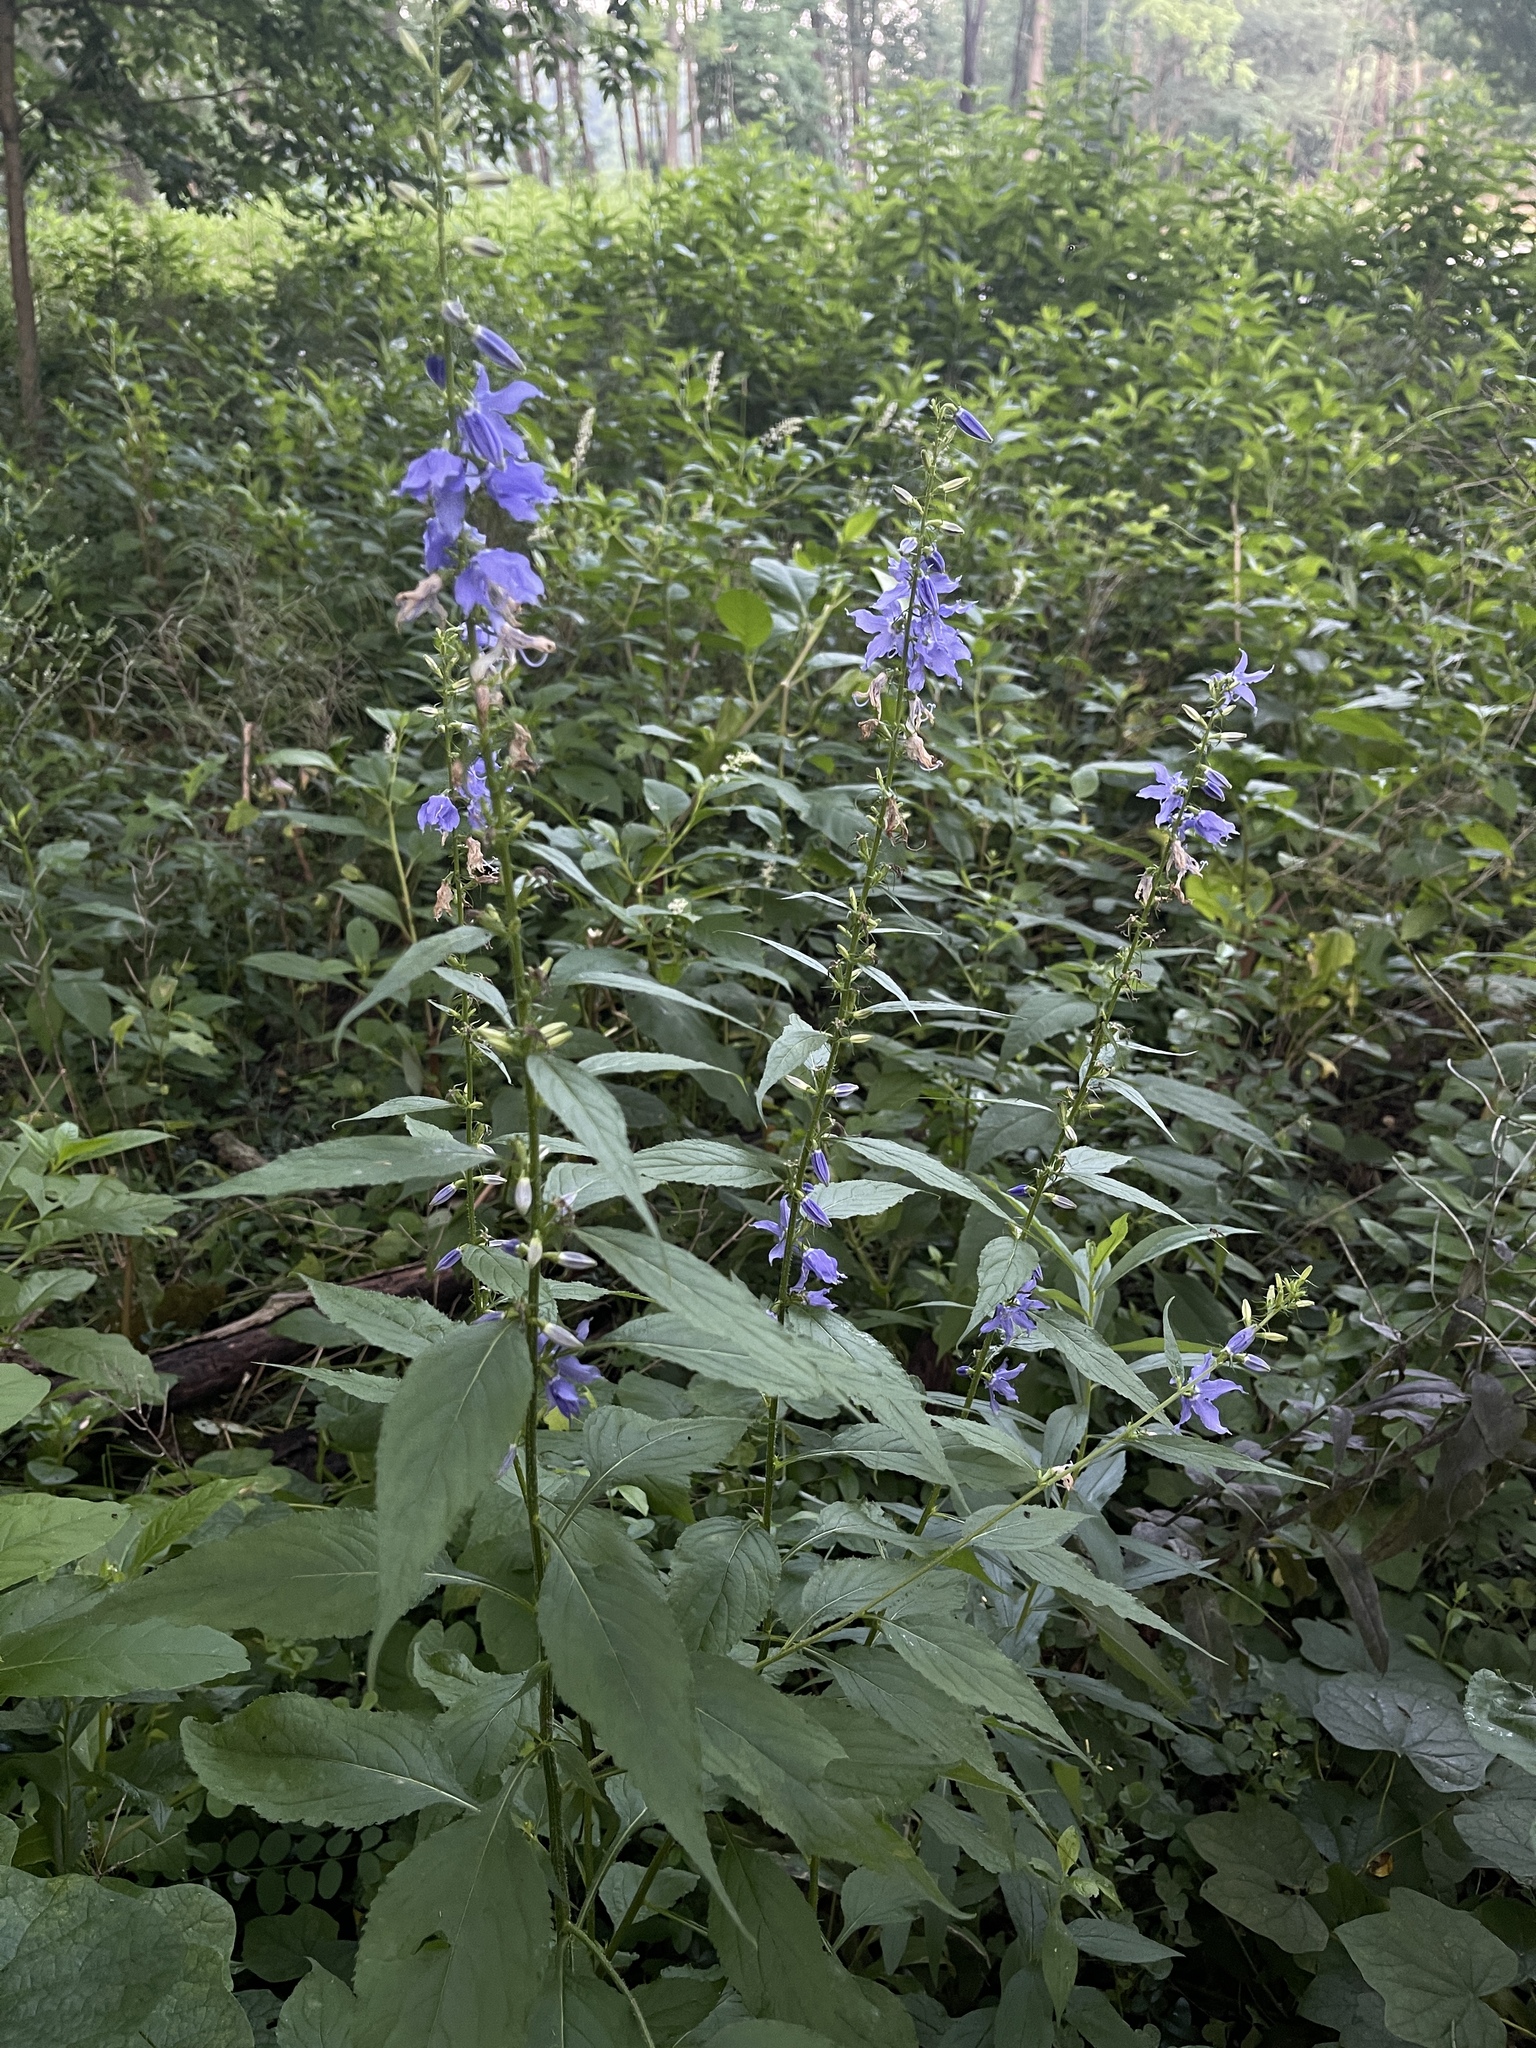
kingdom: Plantae
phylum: Tracheophyta
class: Magnoliopsida
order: Asterales
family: Campanulaceae
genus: Campanulastrum
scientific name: Campanulastrum americanum
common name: American bellflower
